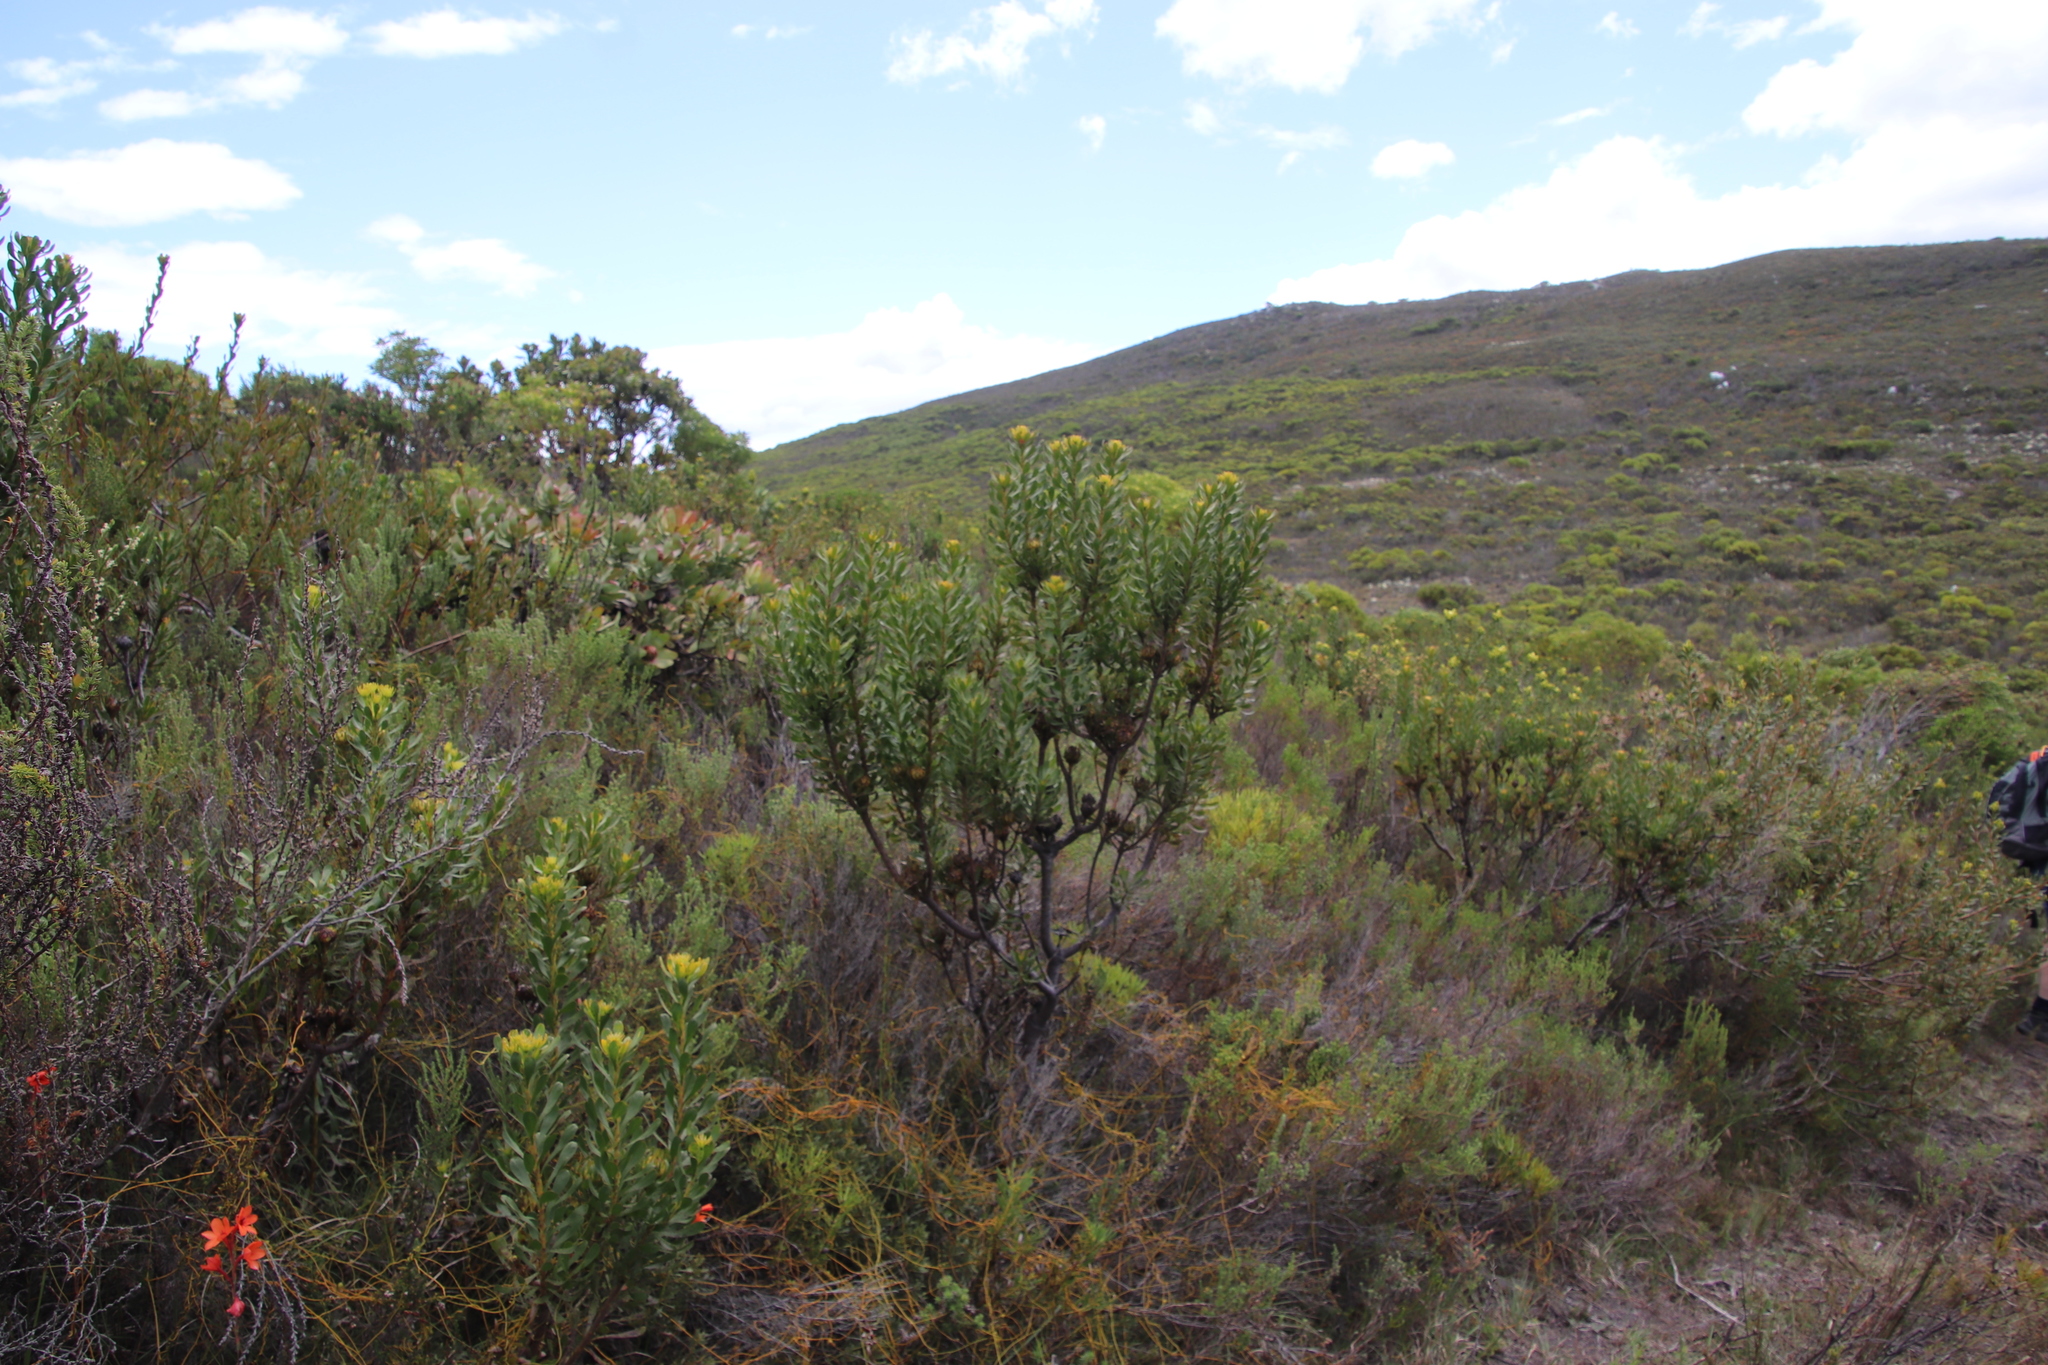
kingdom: Plantae
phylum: Tracheophyta
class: Magnoliopsida
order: Proteales
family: Proteaceae
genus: Aulax
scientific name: Aulax umbellata
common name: Broad-leaf featherbush
